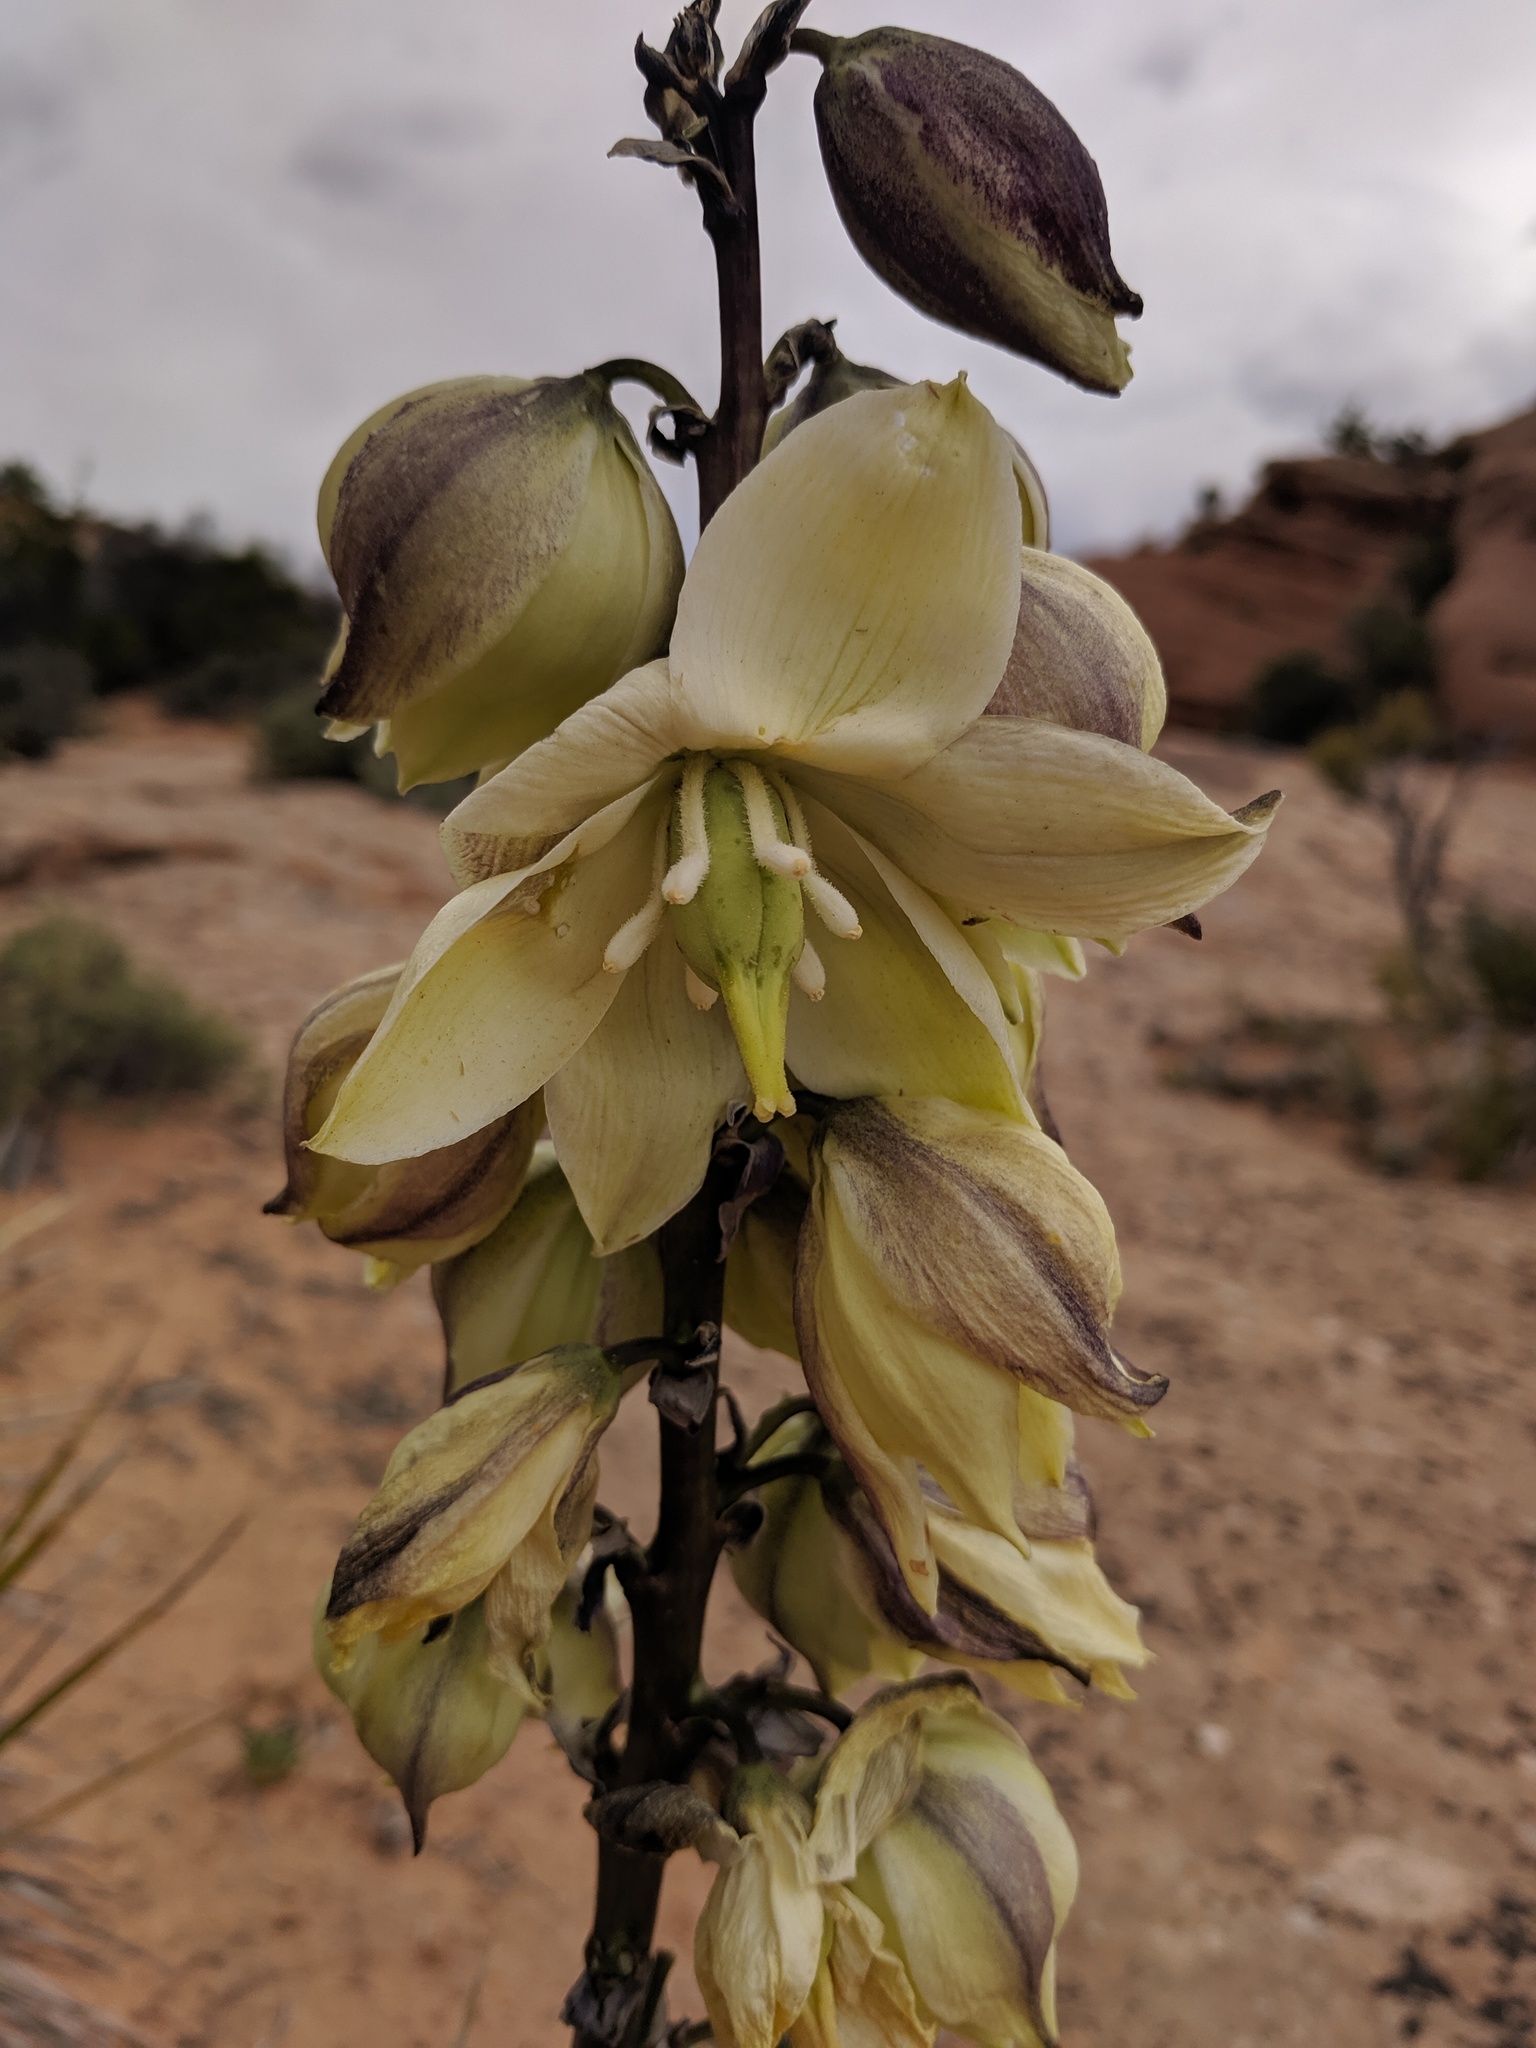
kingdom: Plantae
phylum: Tracheophyta
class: Liliopsida
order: Asparagales
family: Asparagaceae
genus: Yucca
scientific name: Yucca harrimaniae
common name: Harriman's yucca
